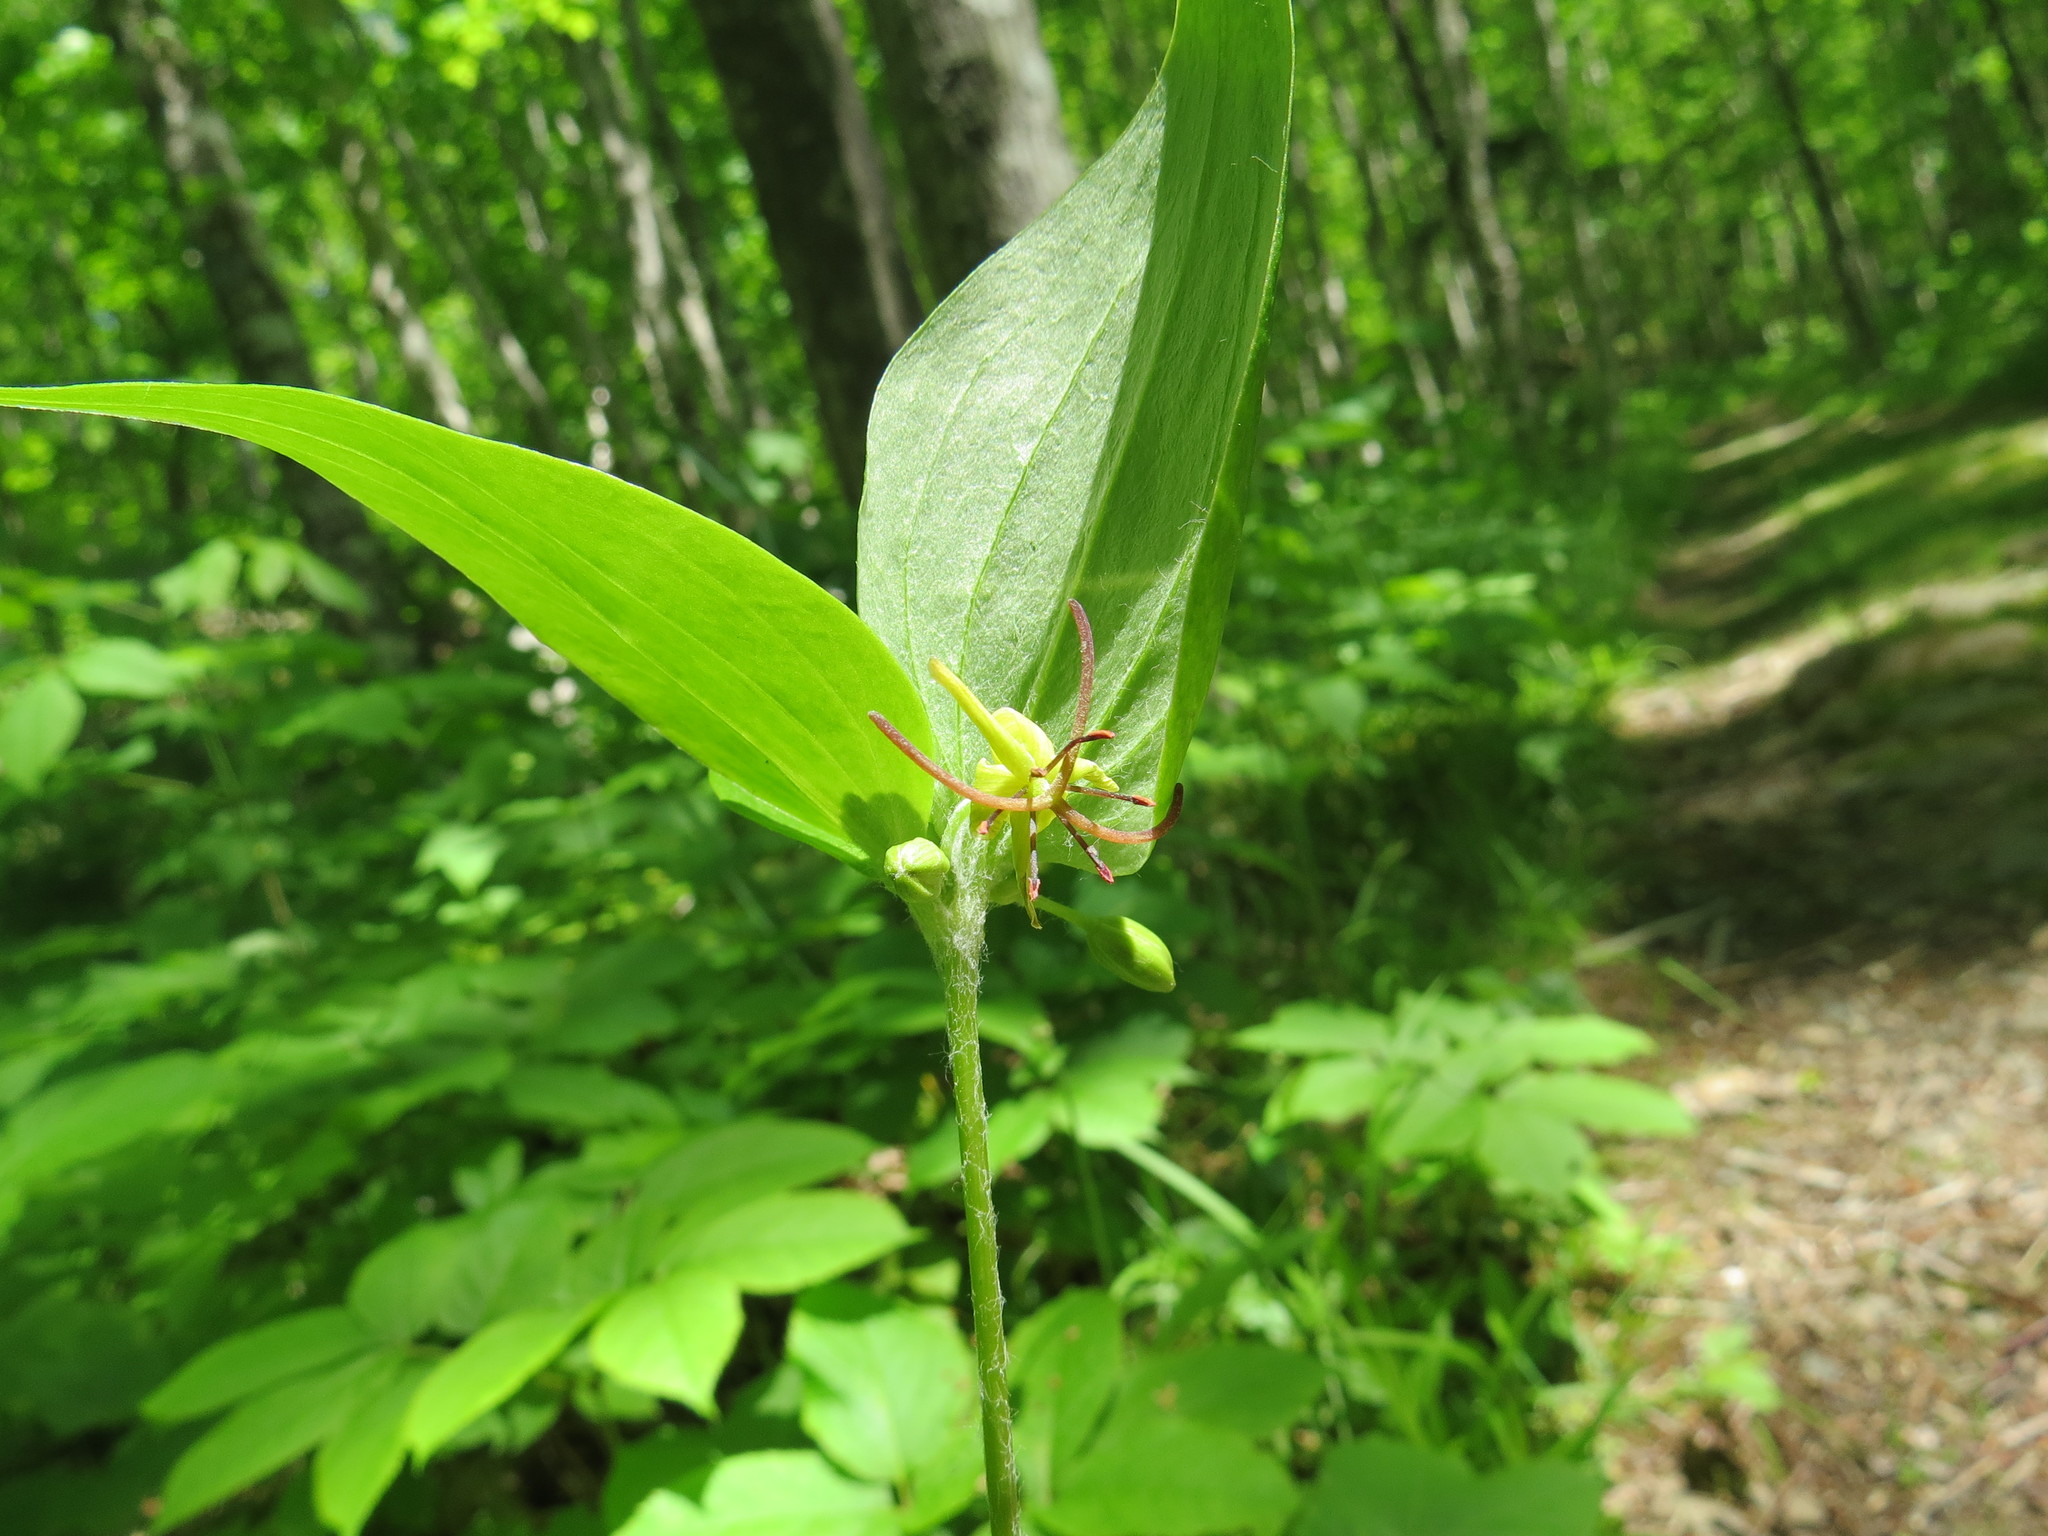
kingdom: Plantae
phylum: Tracheophyta
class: Liliopsida
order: Liliales
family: Liliaceae
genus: Medeola
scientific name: Medeola virginiana
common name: Indian cucumber-root
